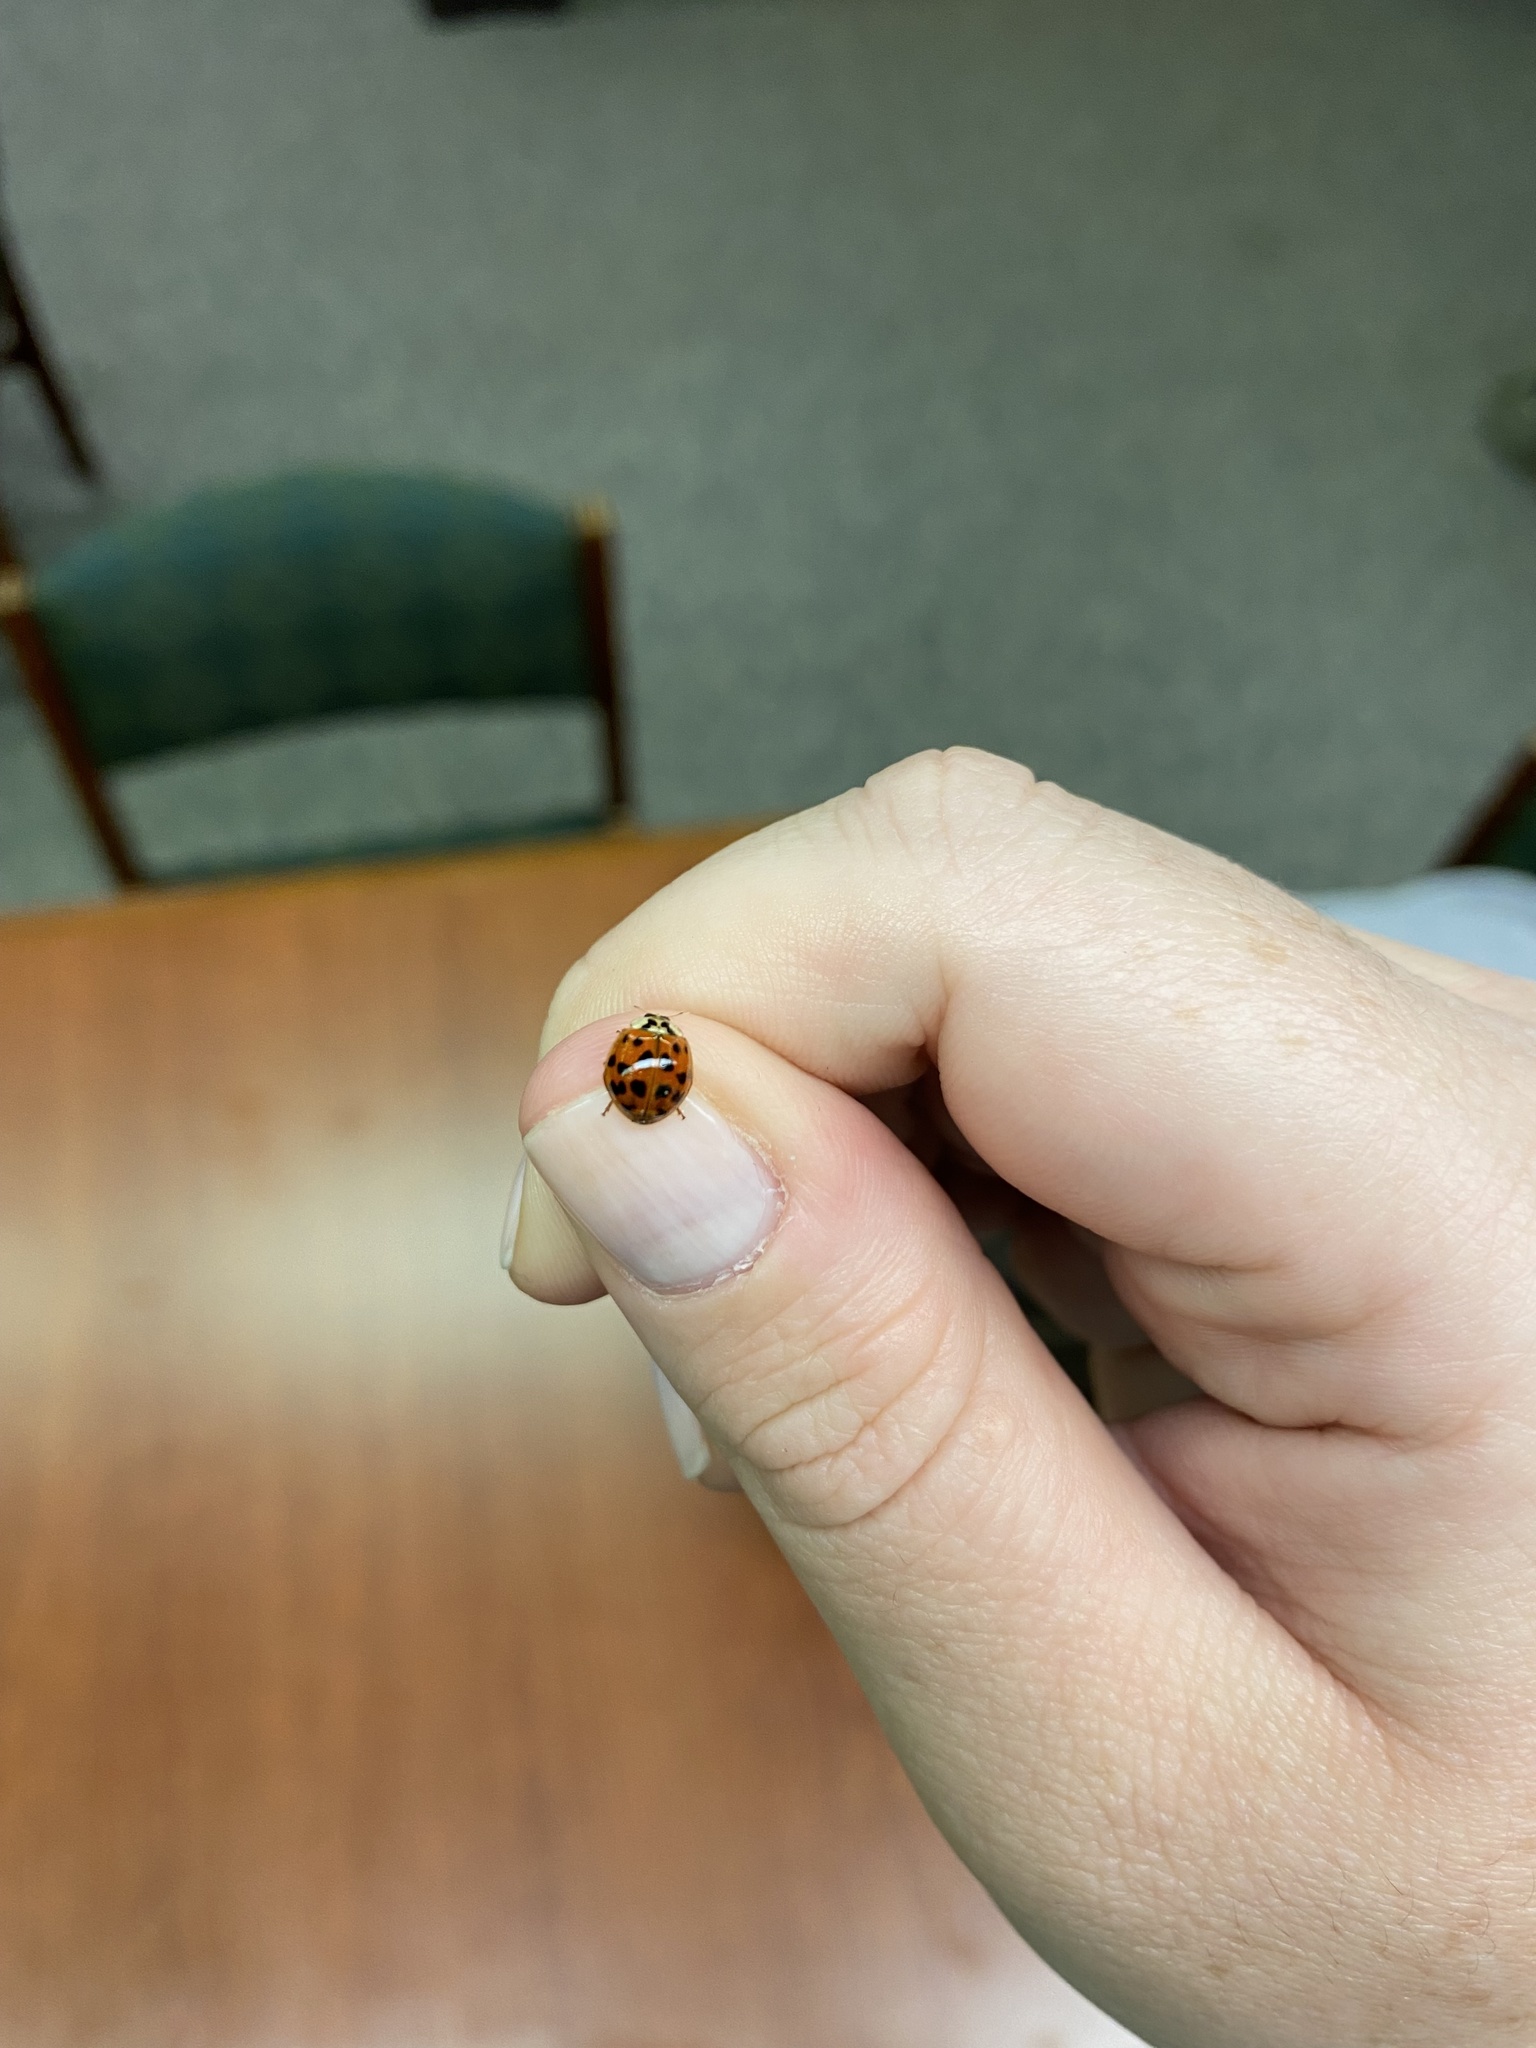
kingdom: Animalia
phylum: Arthropoda
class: Insecta
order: Coleoptera
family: Coccinellidae
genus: Harmonia
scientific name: Harmonia axyridis
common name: Harlequin ladybird
